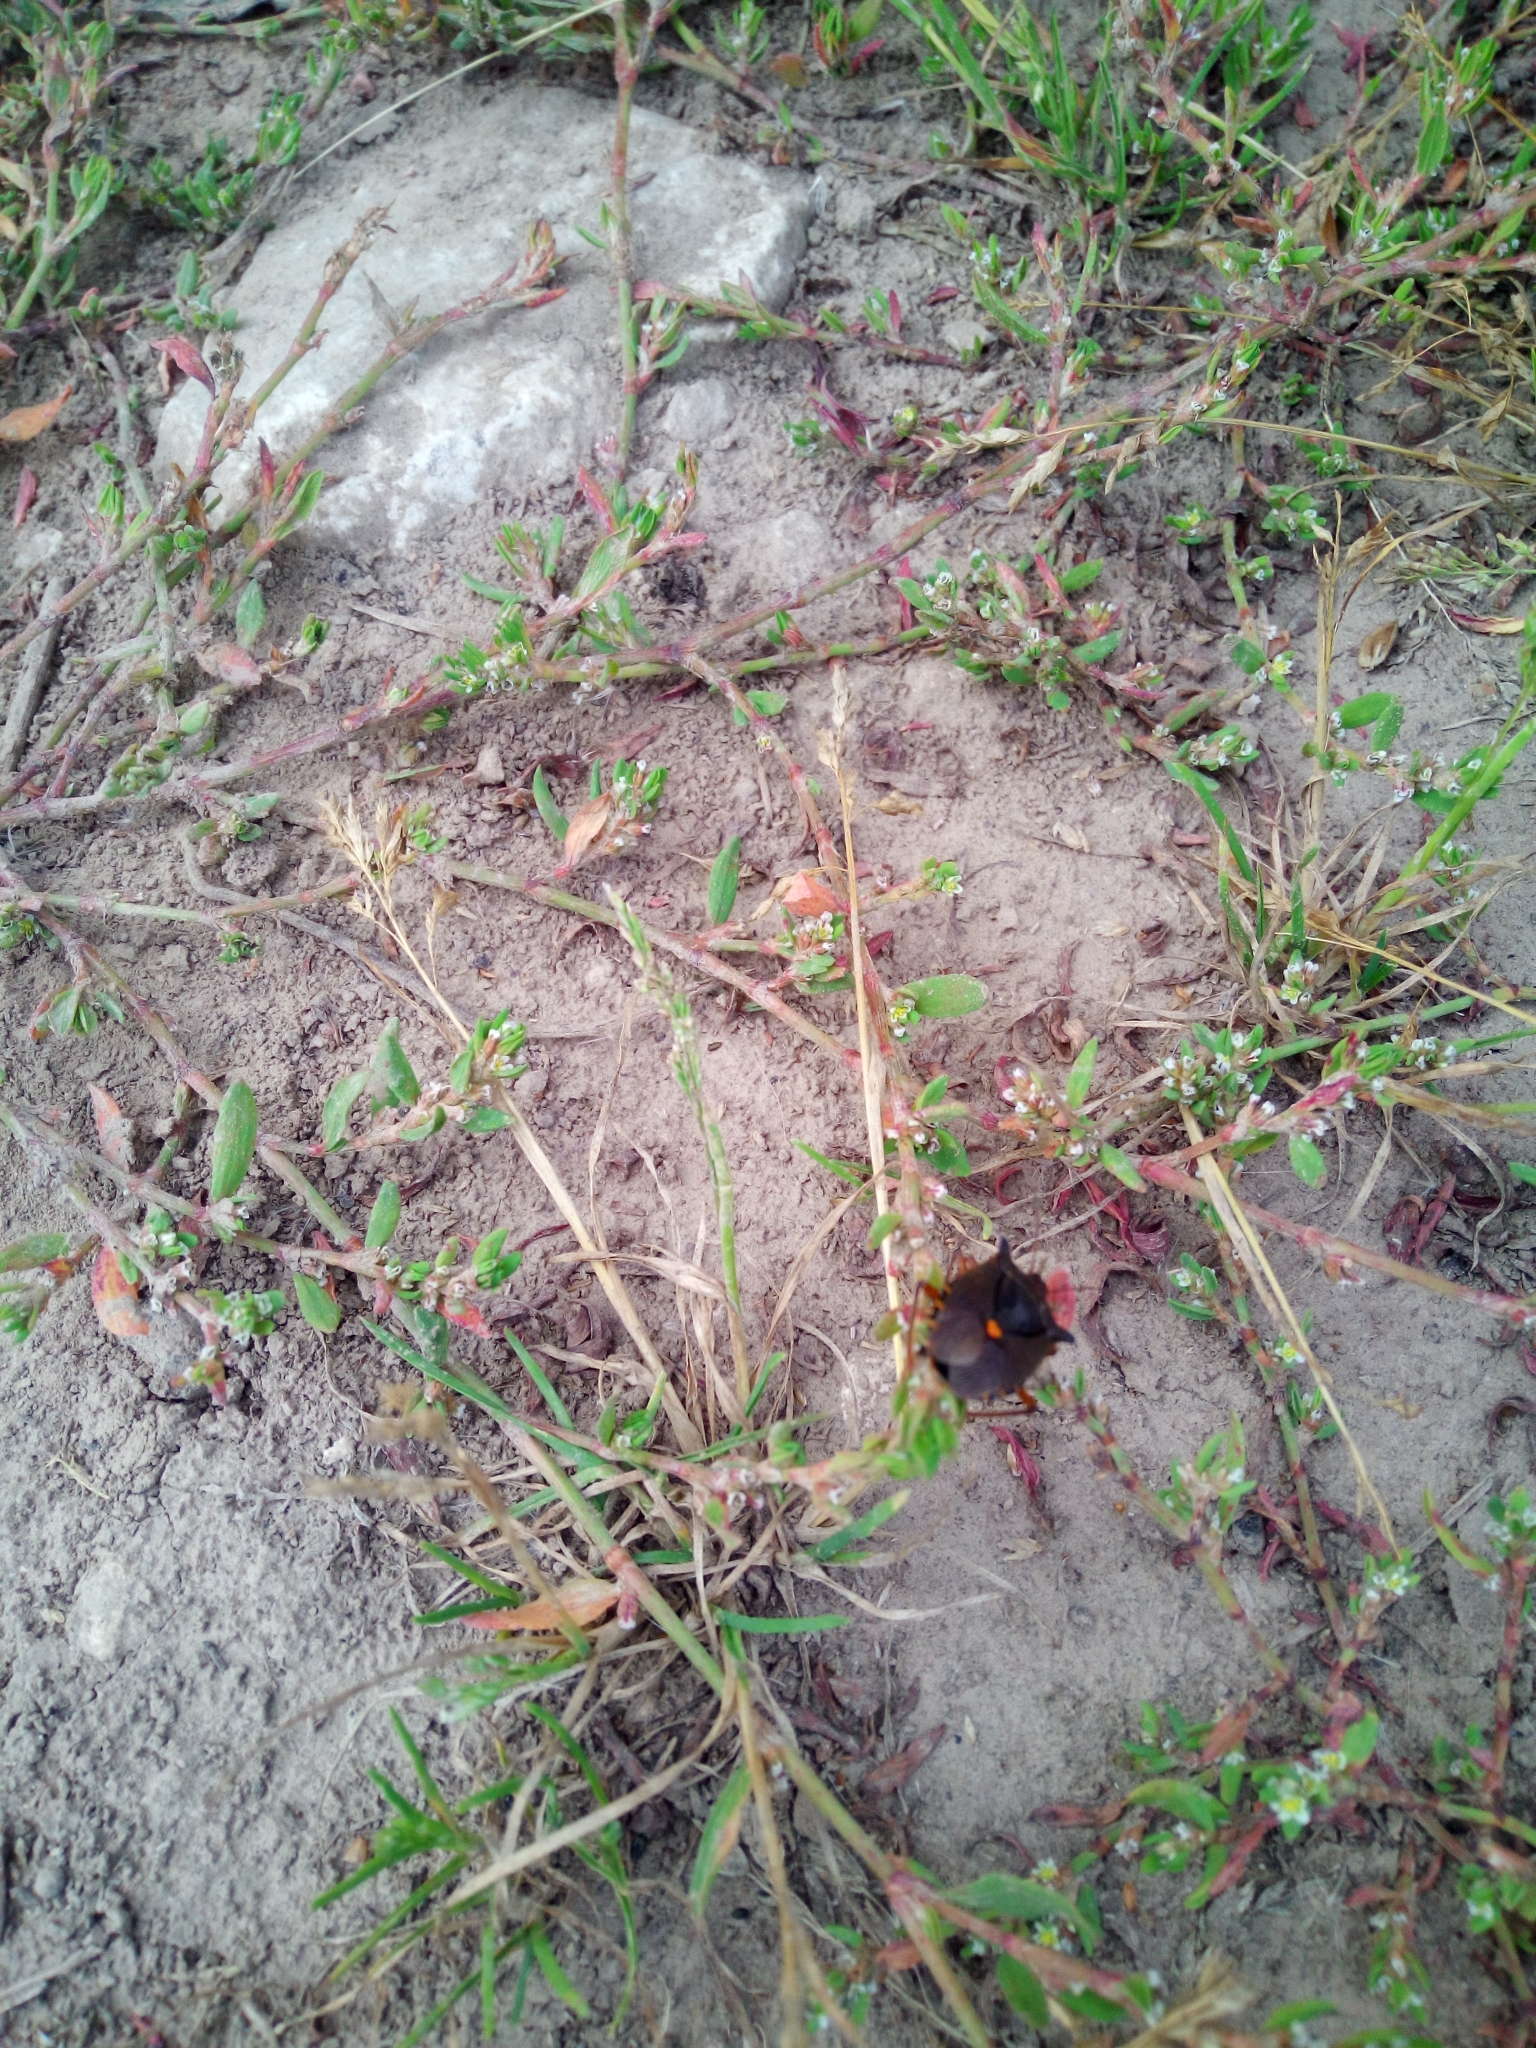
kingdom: Animalia
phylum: Arthropoda
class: Insecta
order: Hemiptera
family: Pentatomidae
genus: Pentatoma
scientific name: Pentatoma rufipes
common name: Forest bug
